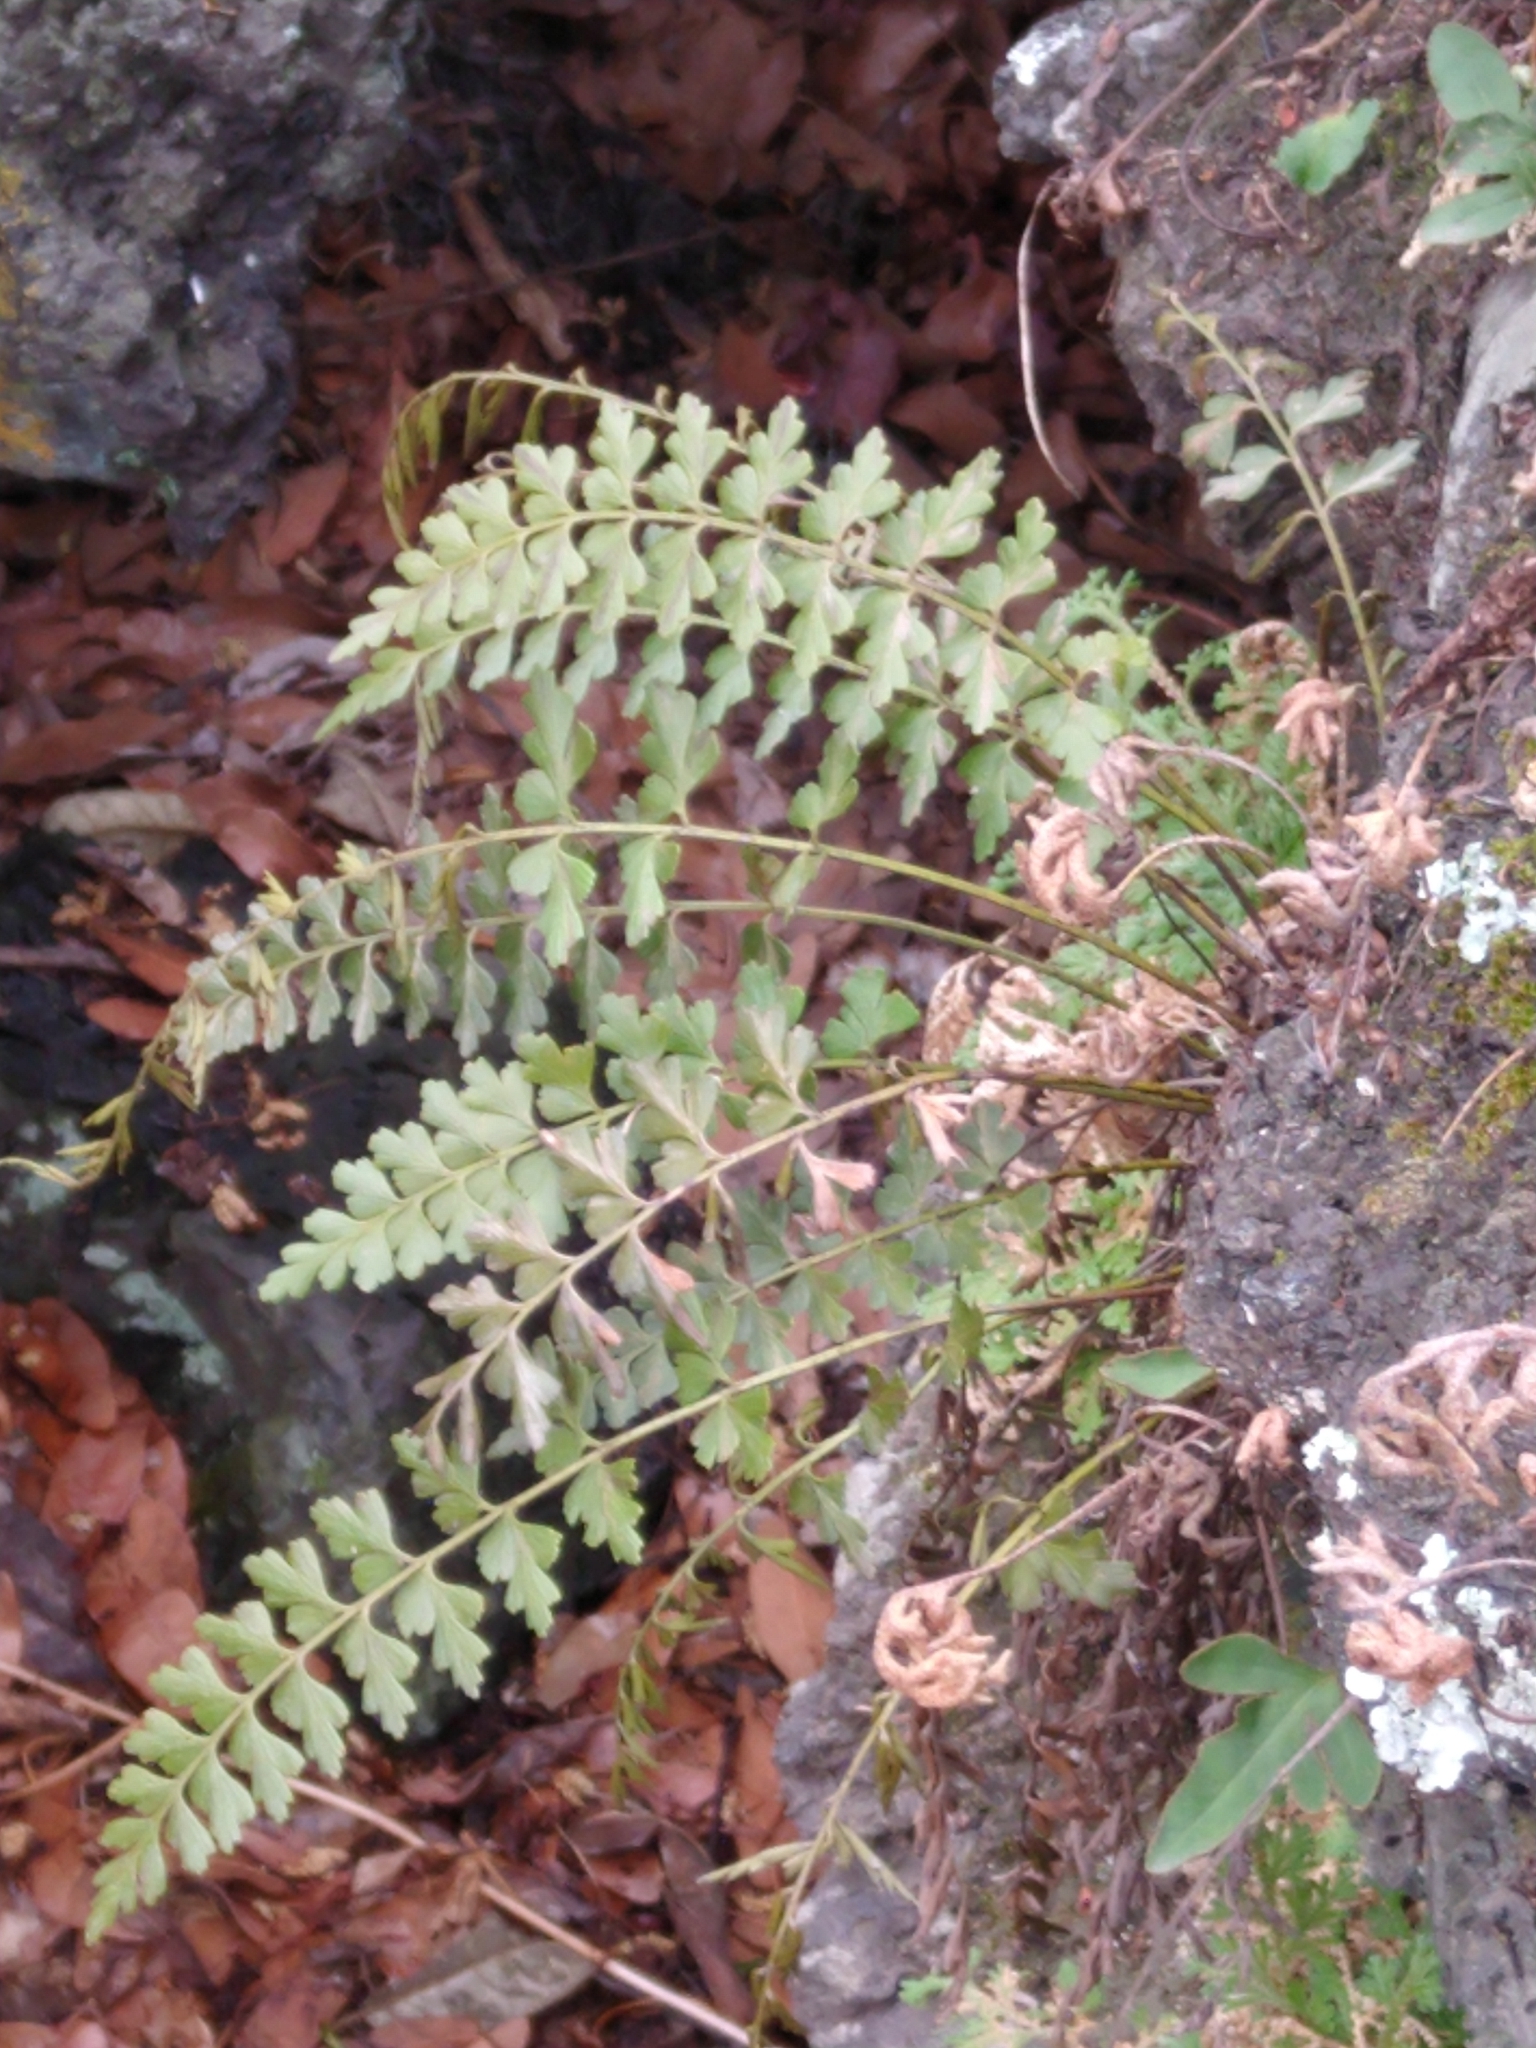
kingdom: Plantae
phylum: Tracheophyta
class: Polypodiopsida
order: Polypodiales
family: Aspleniaceae
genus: Asplenium
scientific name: Asplenium praemorsum
